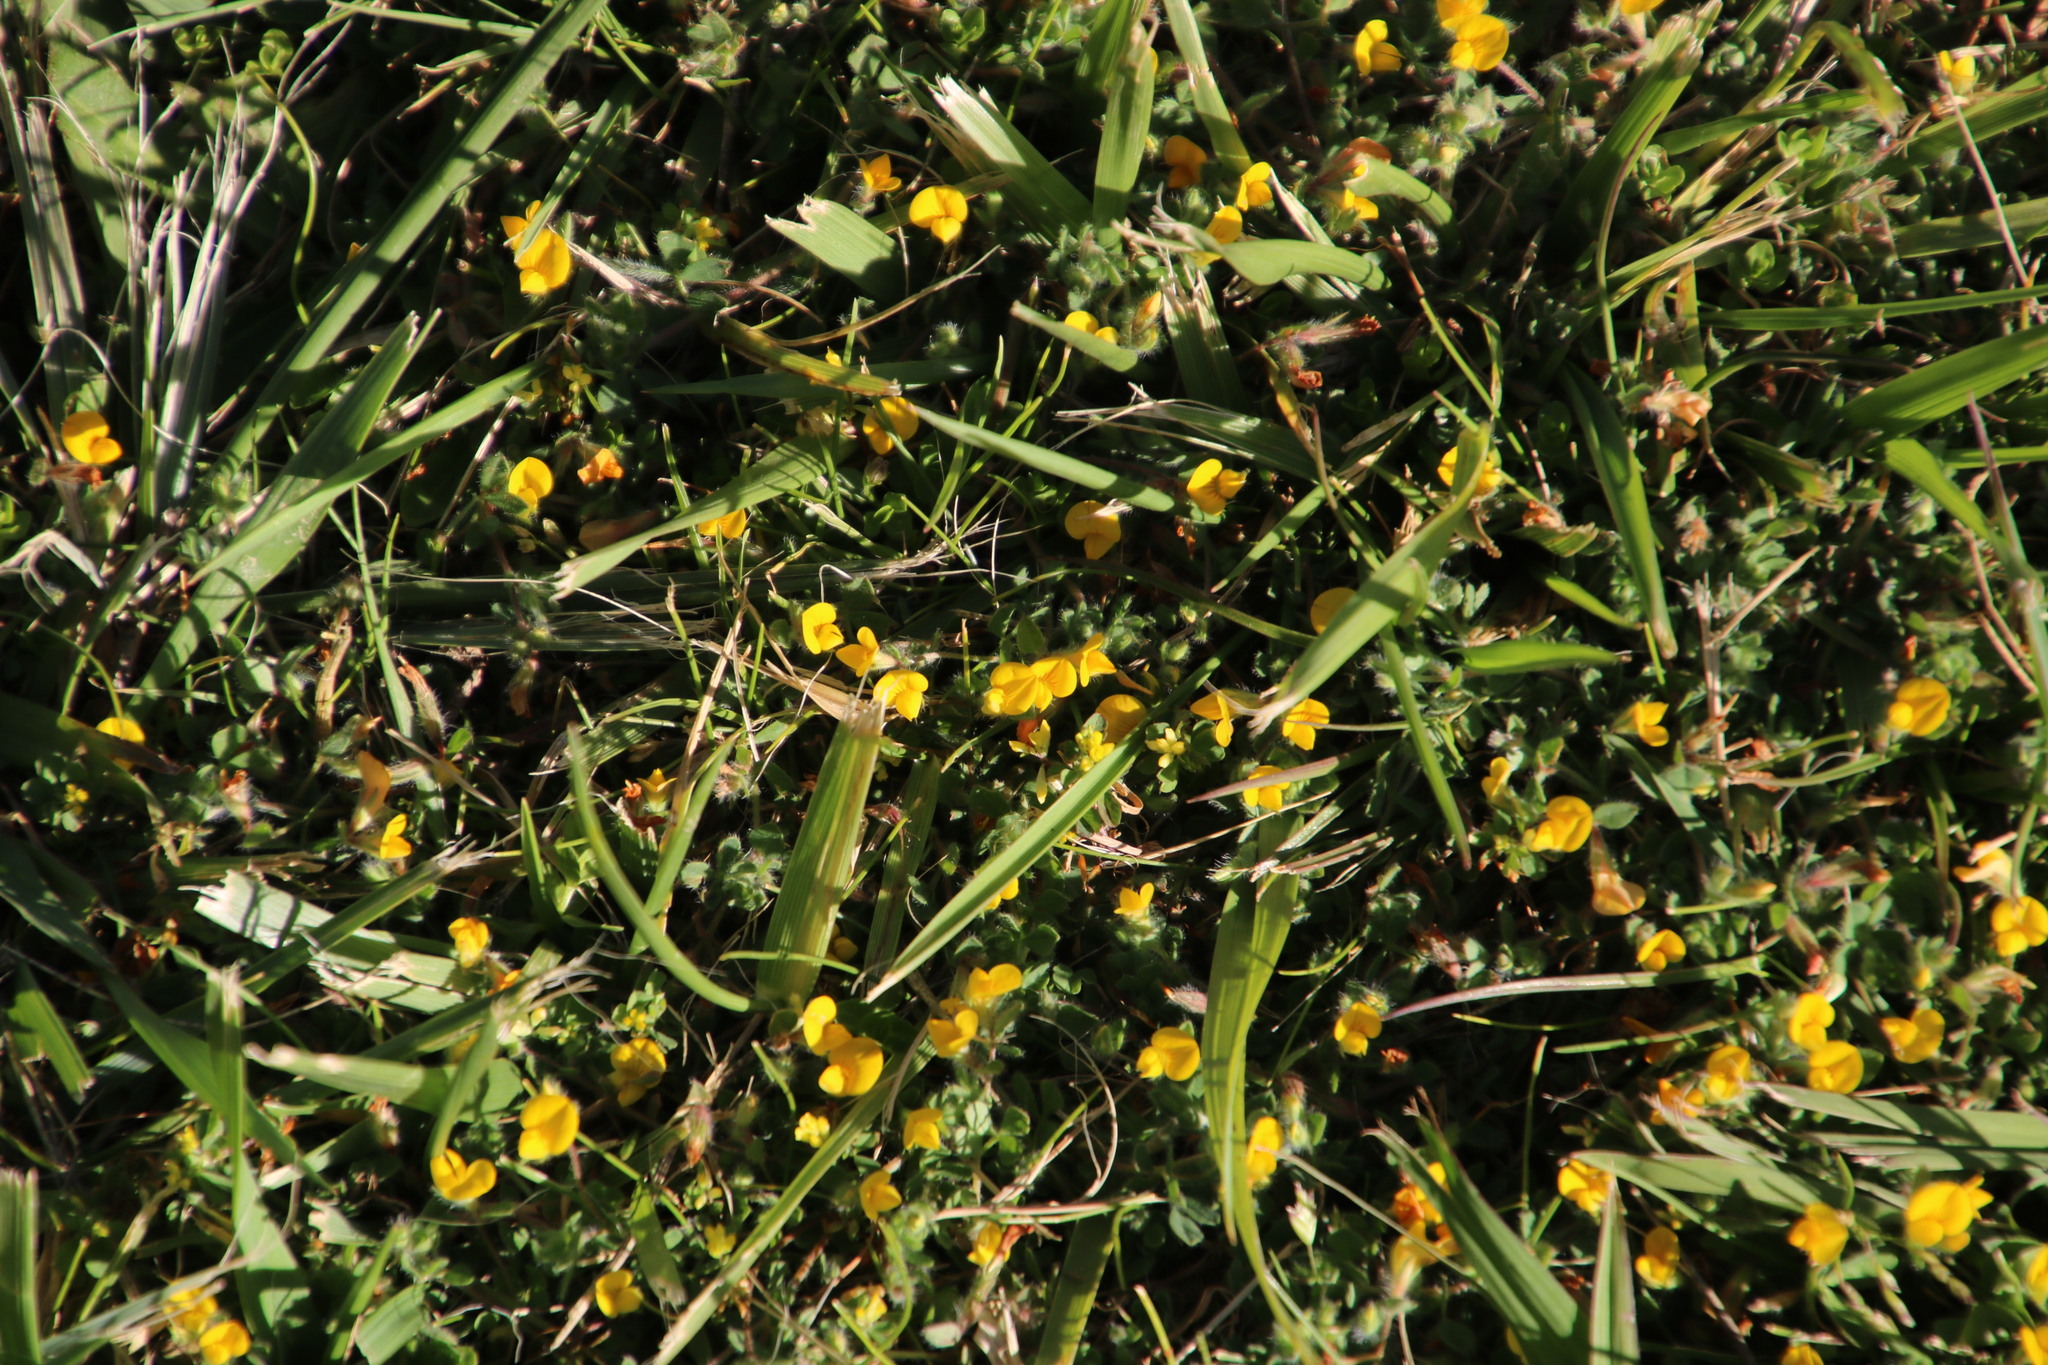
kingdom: Plantae
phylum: Tracheophyta
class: Magnoliopsida
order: Fabales
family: Fabaceae
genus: Lotus
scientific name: Lotus subbiflorus
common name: Hairy bird's-foot trefoil
